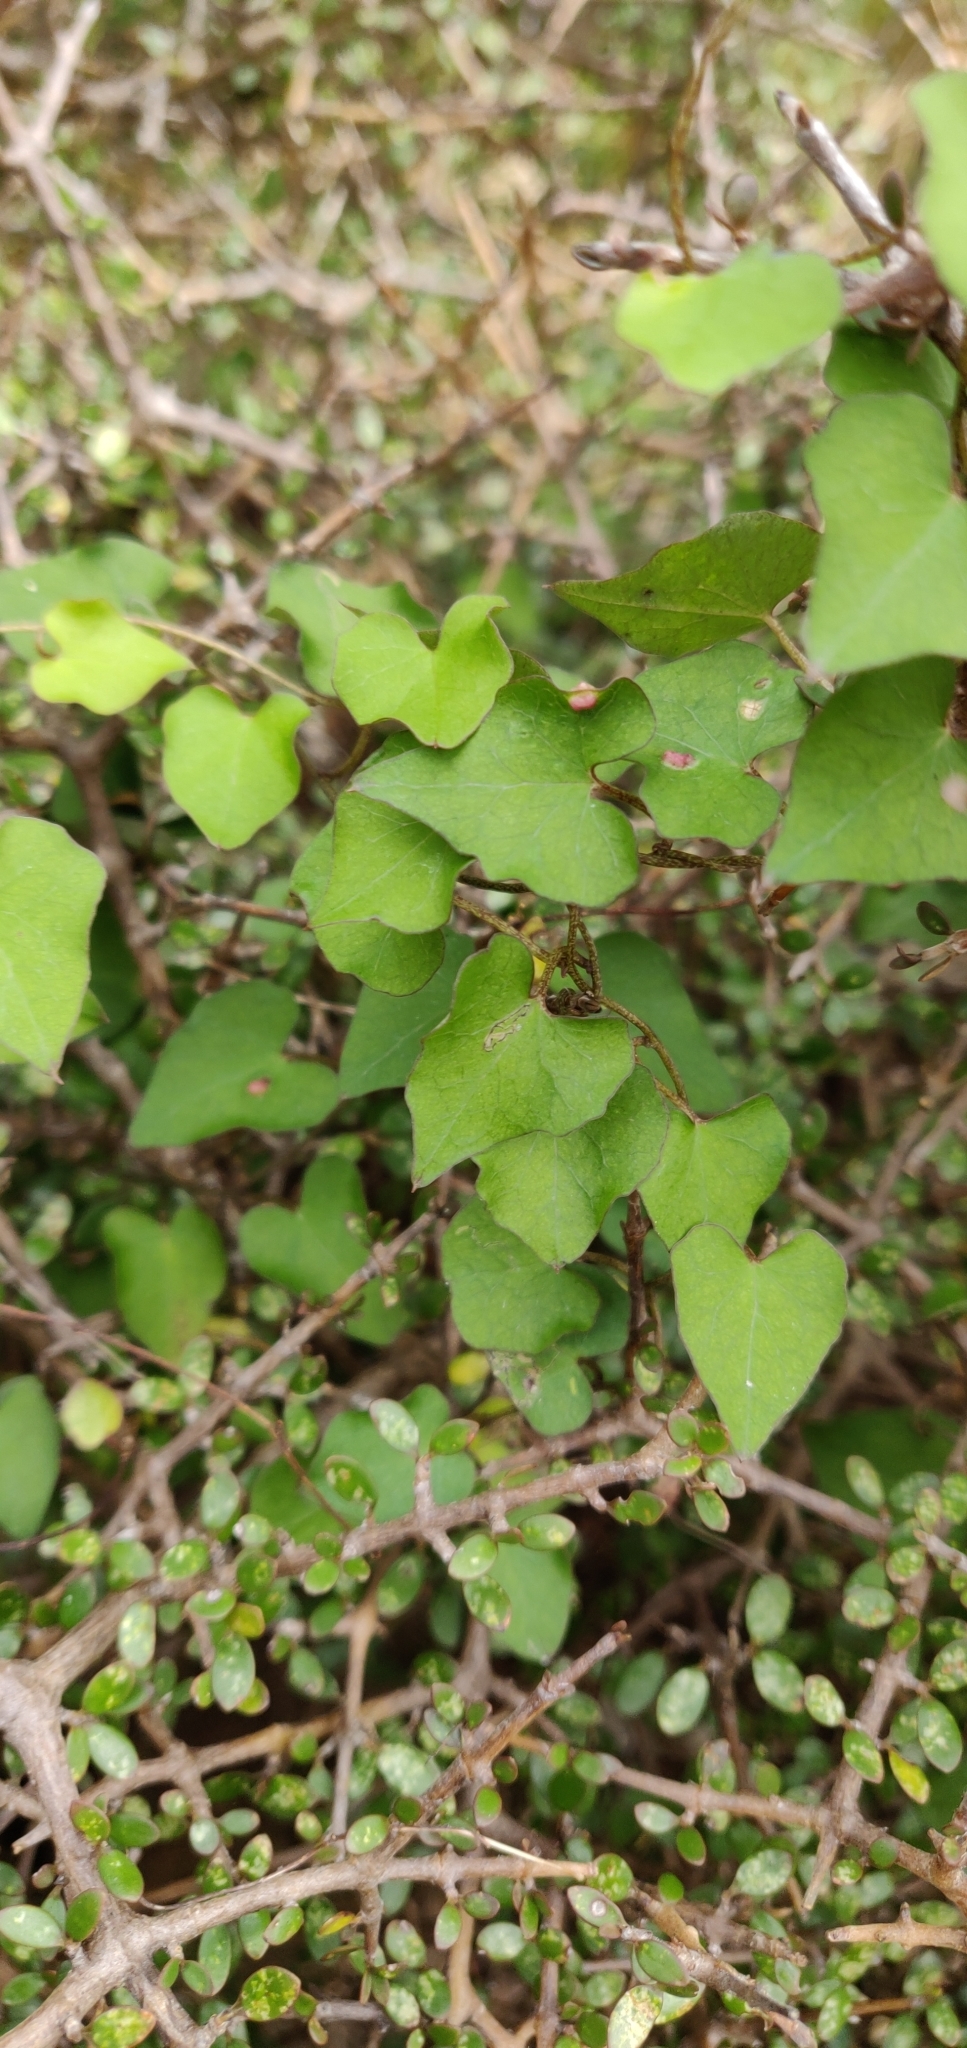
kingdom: Plantae
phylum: Tracheophyta
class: Magnoliopsida
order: Solanales
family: Convolvulaceae
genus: Calystegia
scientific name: Calystegia tuguriorum
